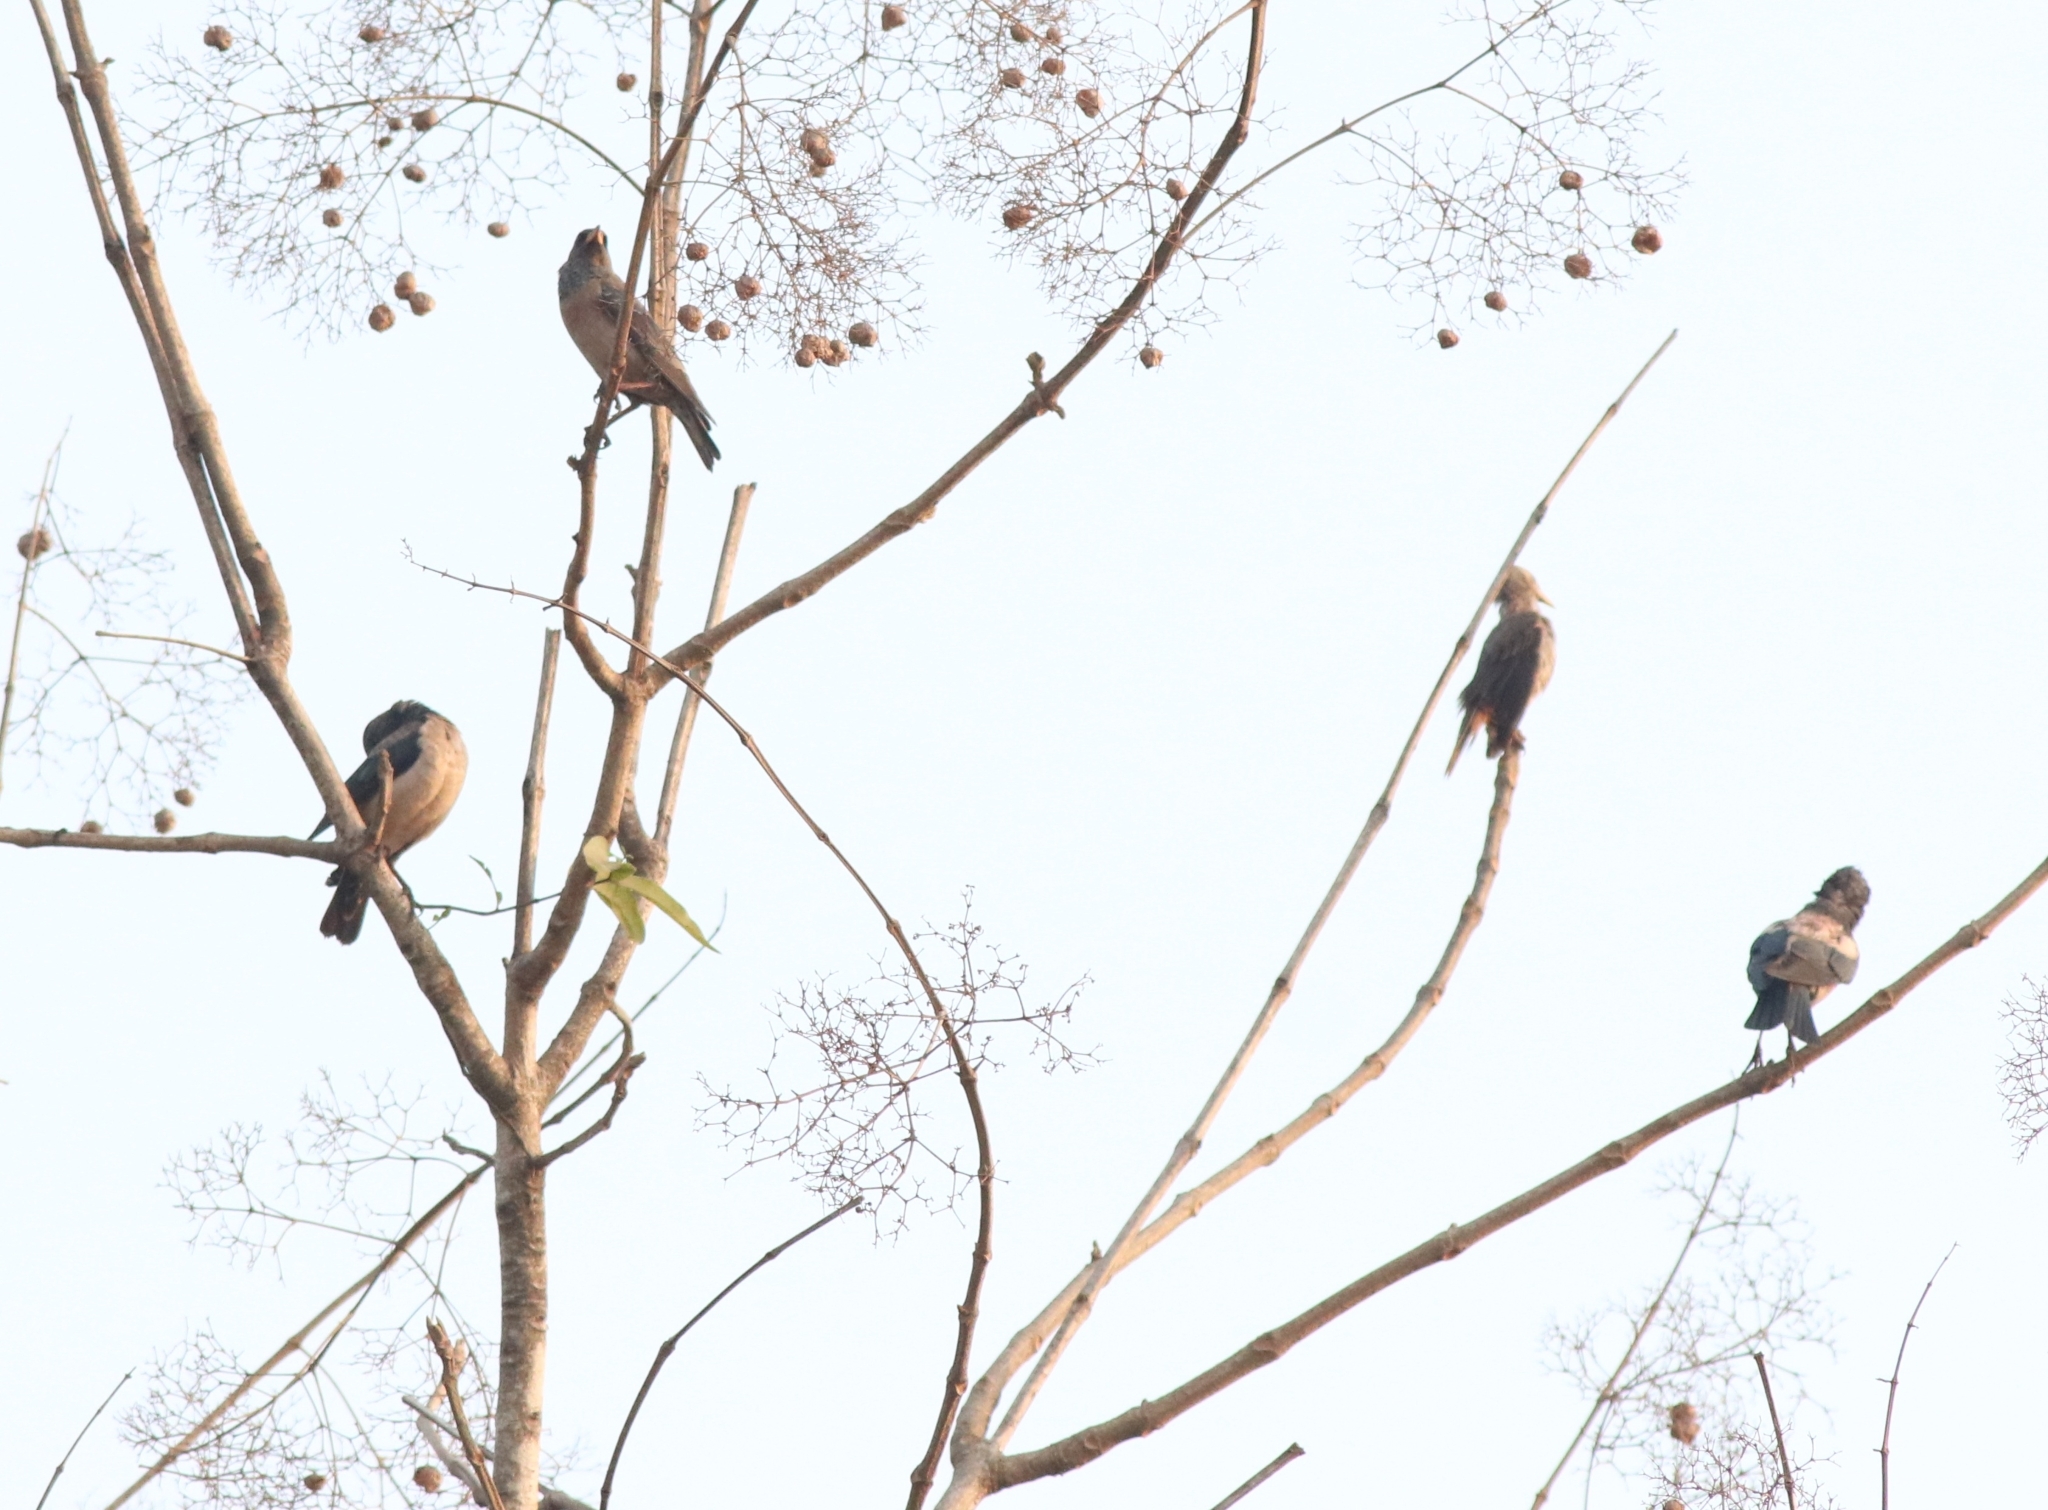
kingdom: Animalia
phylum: Chordata
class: Aves
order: Passeriformes
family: Sturnidae
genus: Pastor
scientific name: Pastor roseus
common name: Rosy starling
